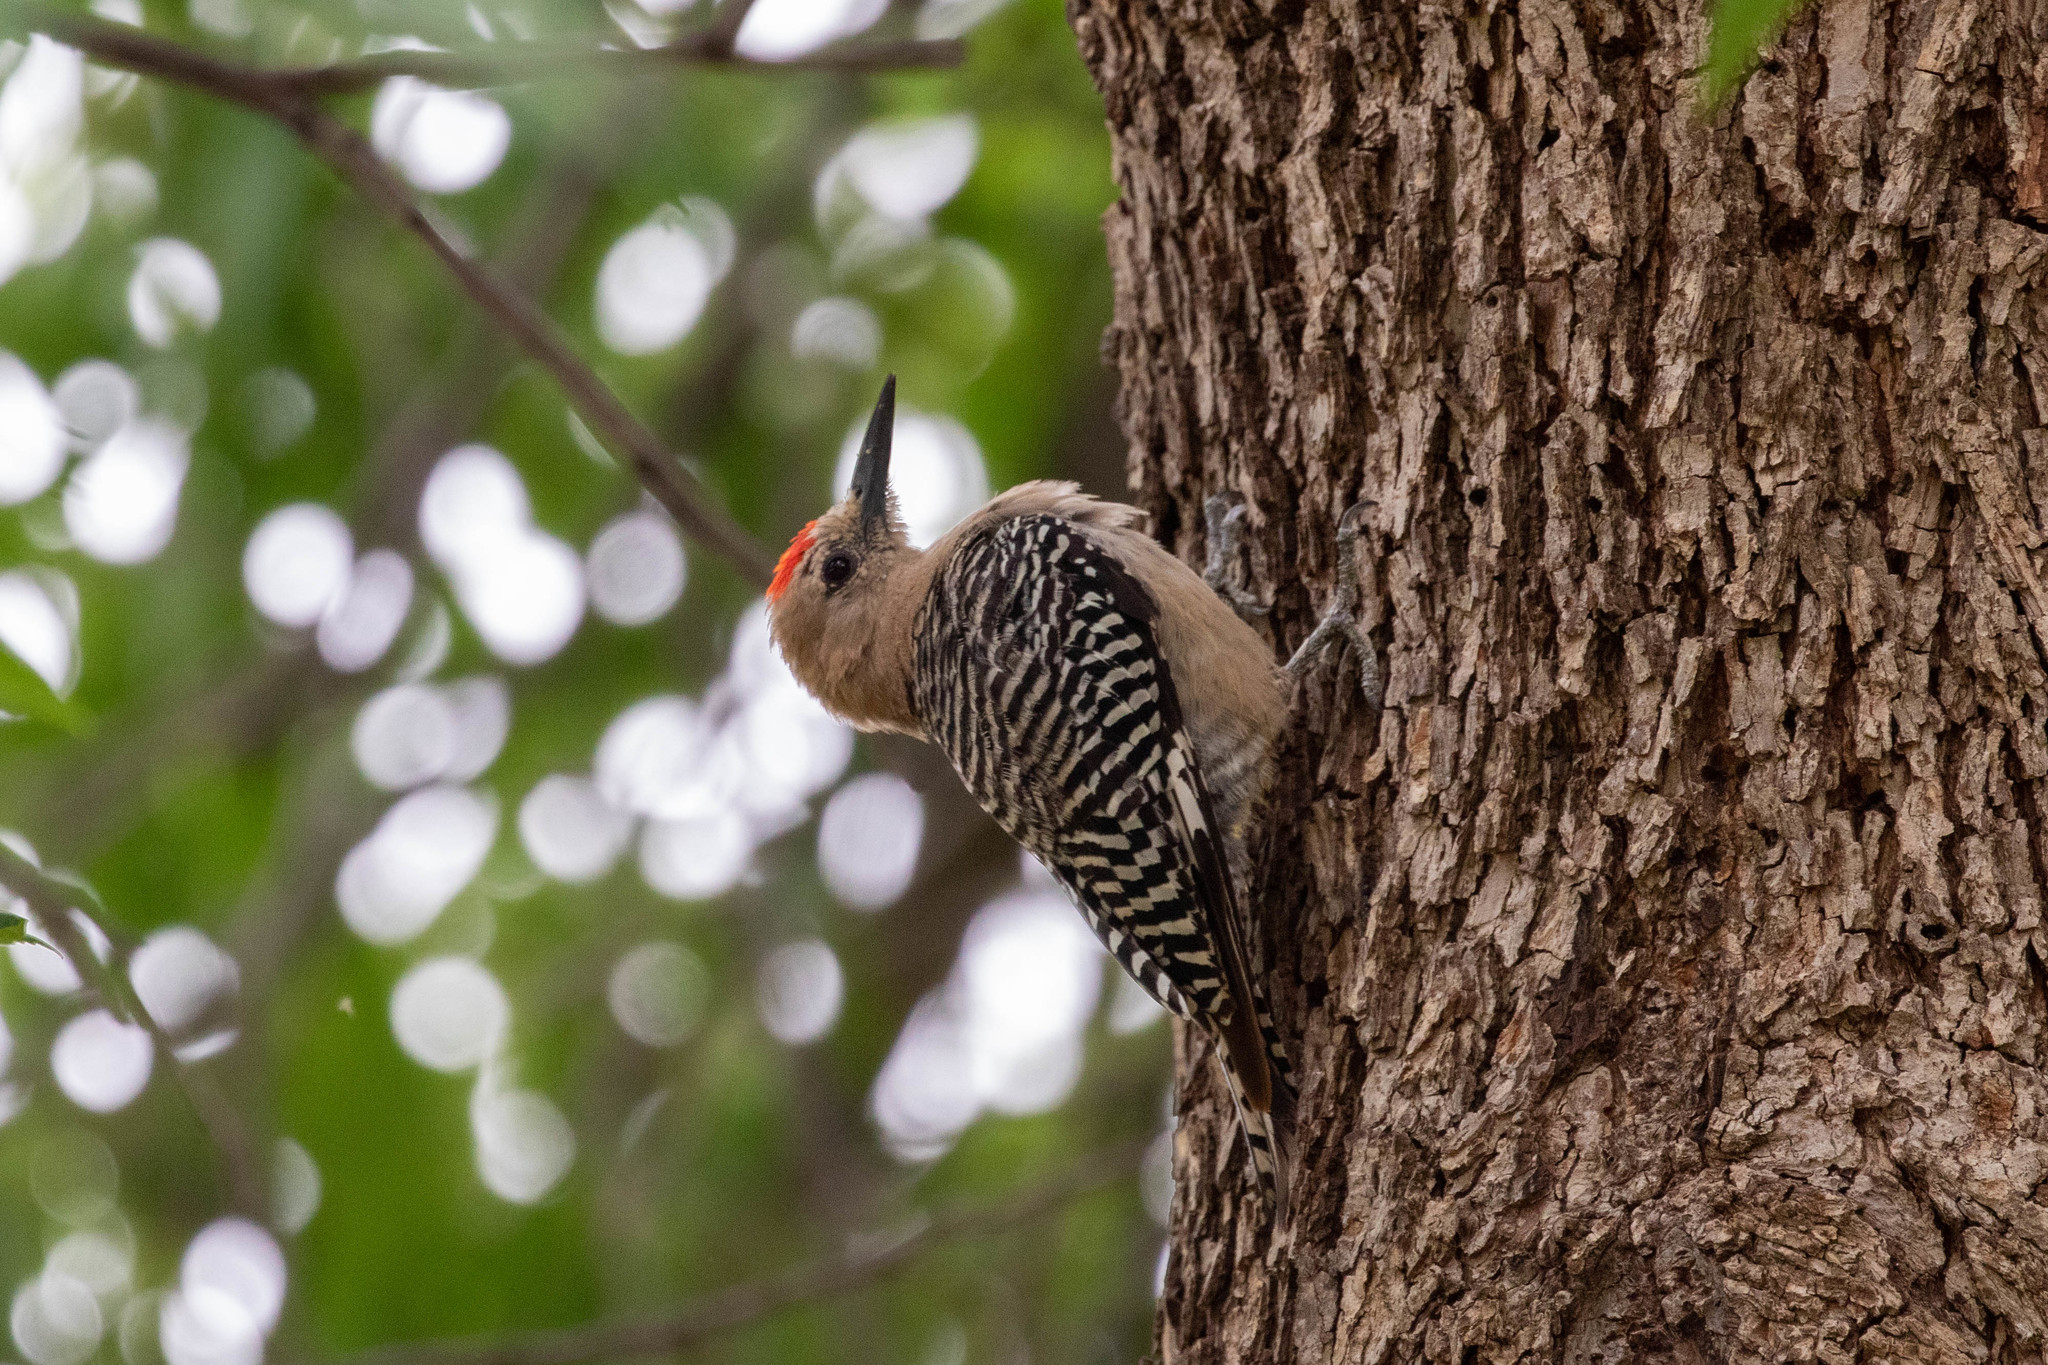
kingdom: Animalia
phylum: Chordata
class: Aves
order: Piciformes
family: Picidae
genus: Melanerpes
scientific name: Melanerpes uropygialis
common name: Gila woodpecker
